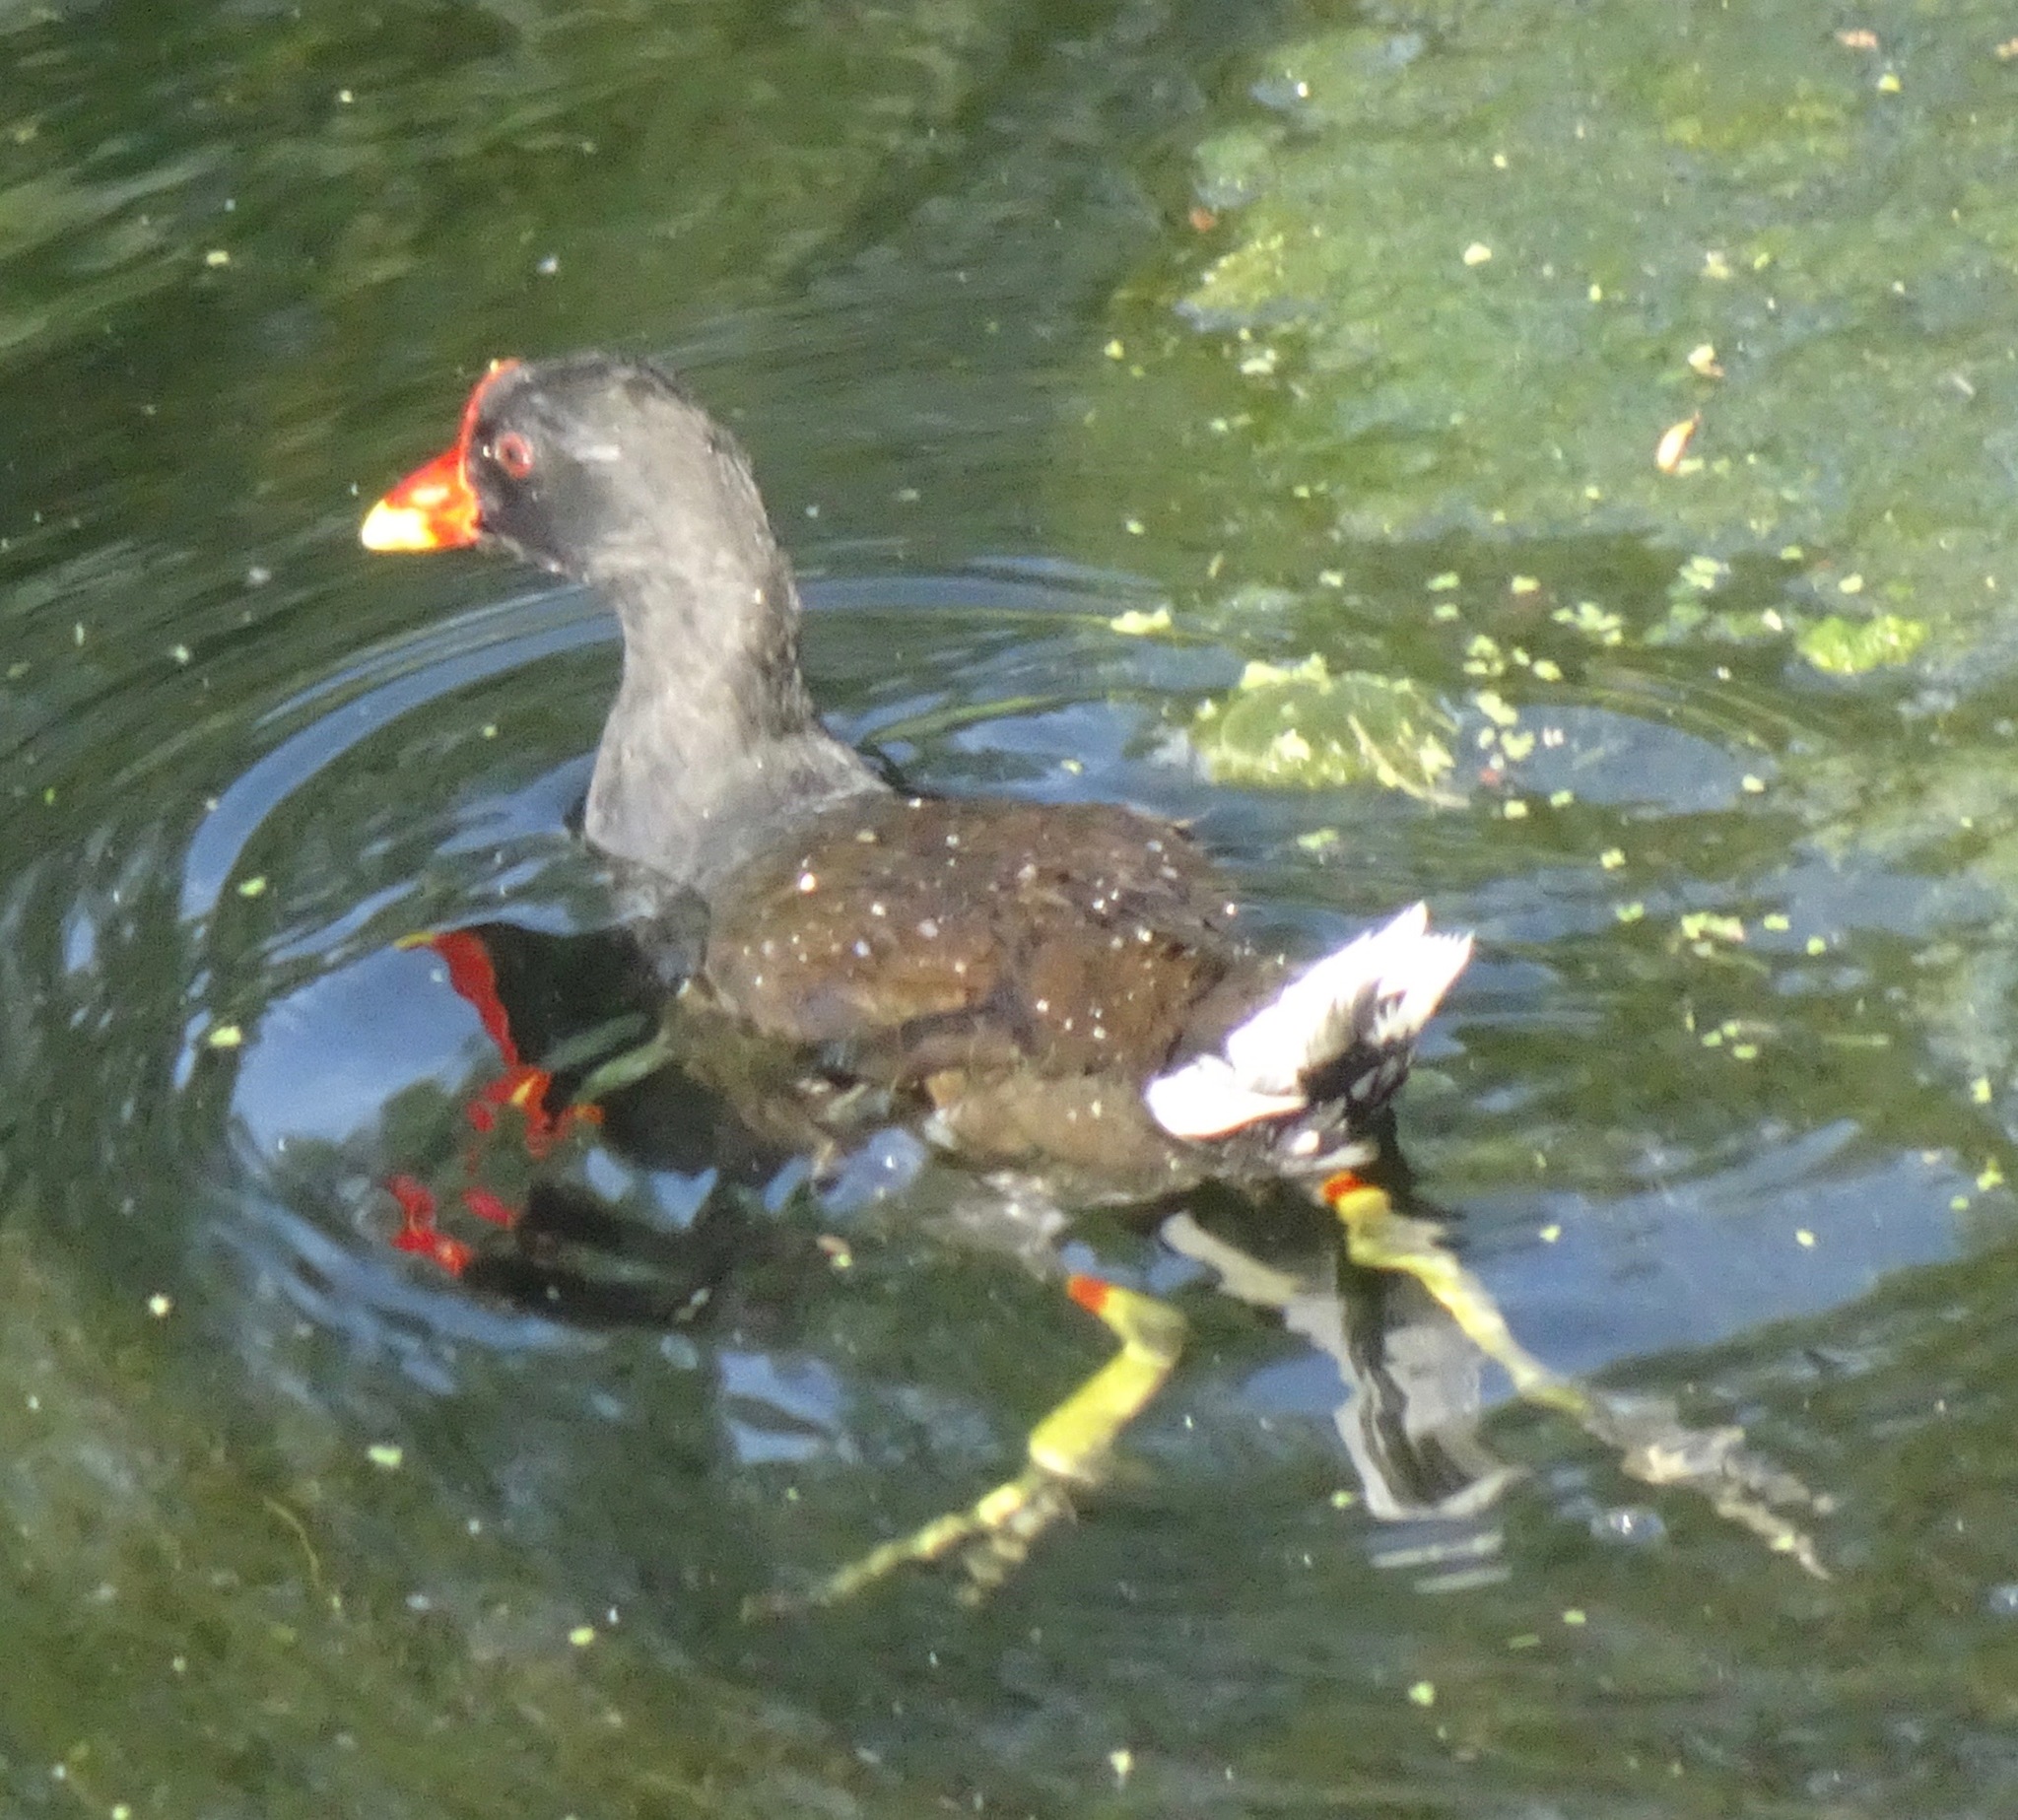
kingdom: Animalia
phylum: Chordata
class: Aves
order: Gruiformes
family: Rallidae
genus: Gallinula
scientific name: Gallinula chloropus
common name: Common moorhen
